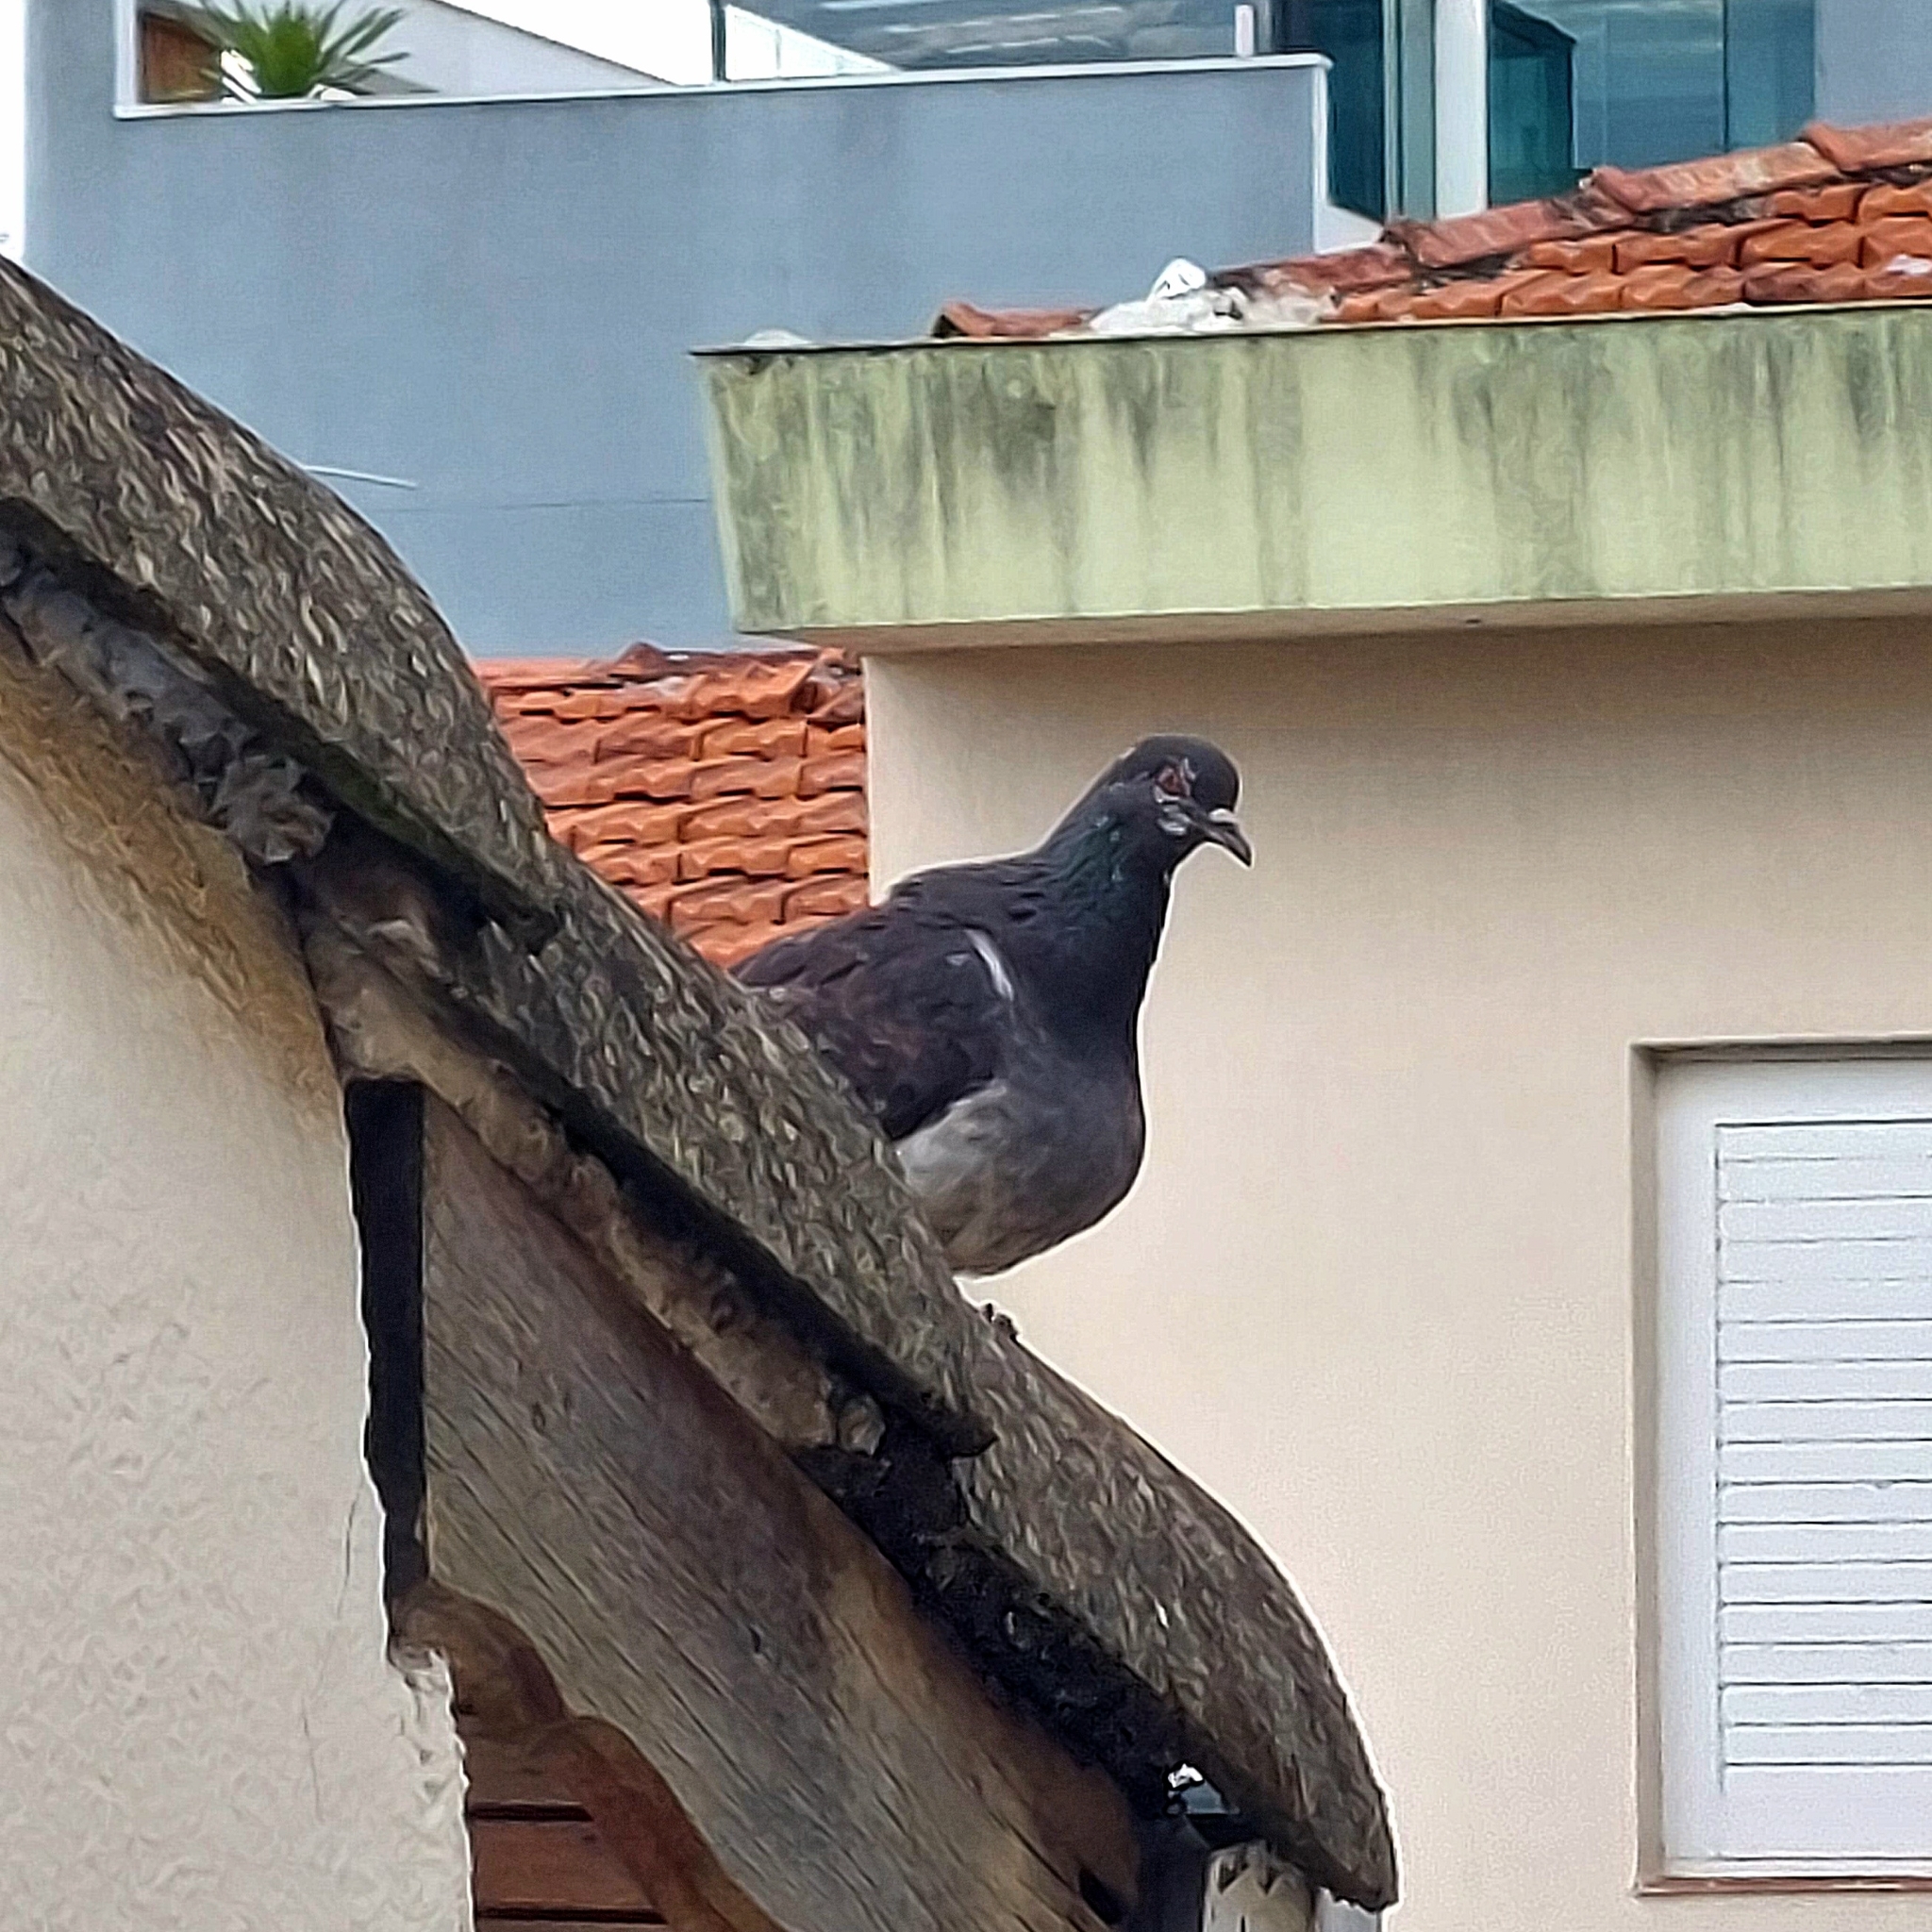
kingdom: Animalia
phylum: Chordata
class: Aves
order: Columbiformes
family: Columbidae
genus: Columba
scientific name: Columba livia
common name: Rock pigeon
